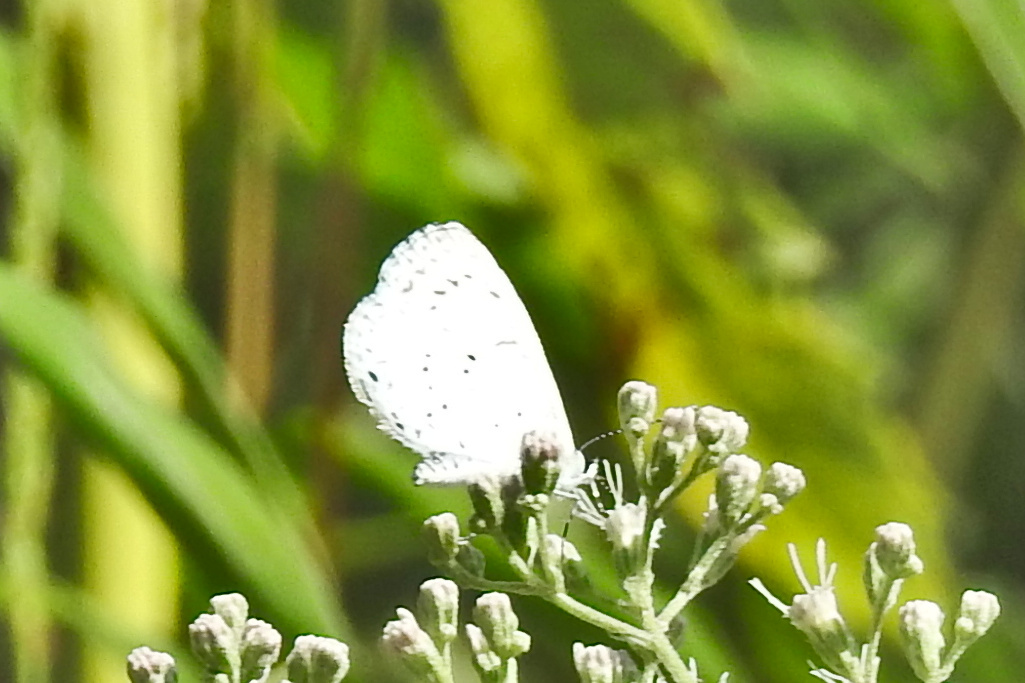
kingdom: Animalia
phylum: Arthropoda
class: Insecta
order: Lepidoptera
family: Lycaenidae
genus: Cyaniris
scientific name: Cyaniris neglecta
